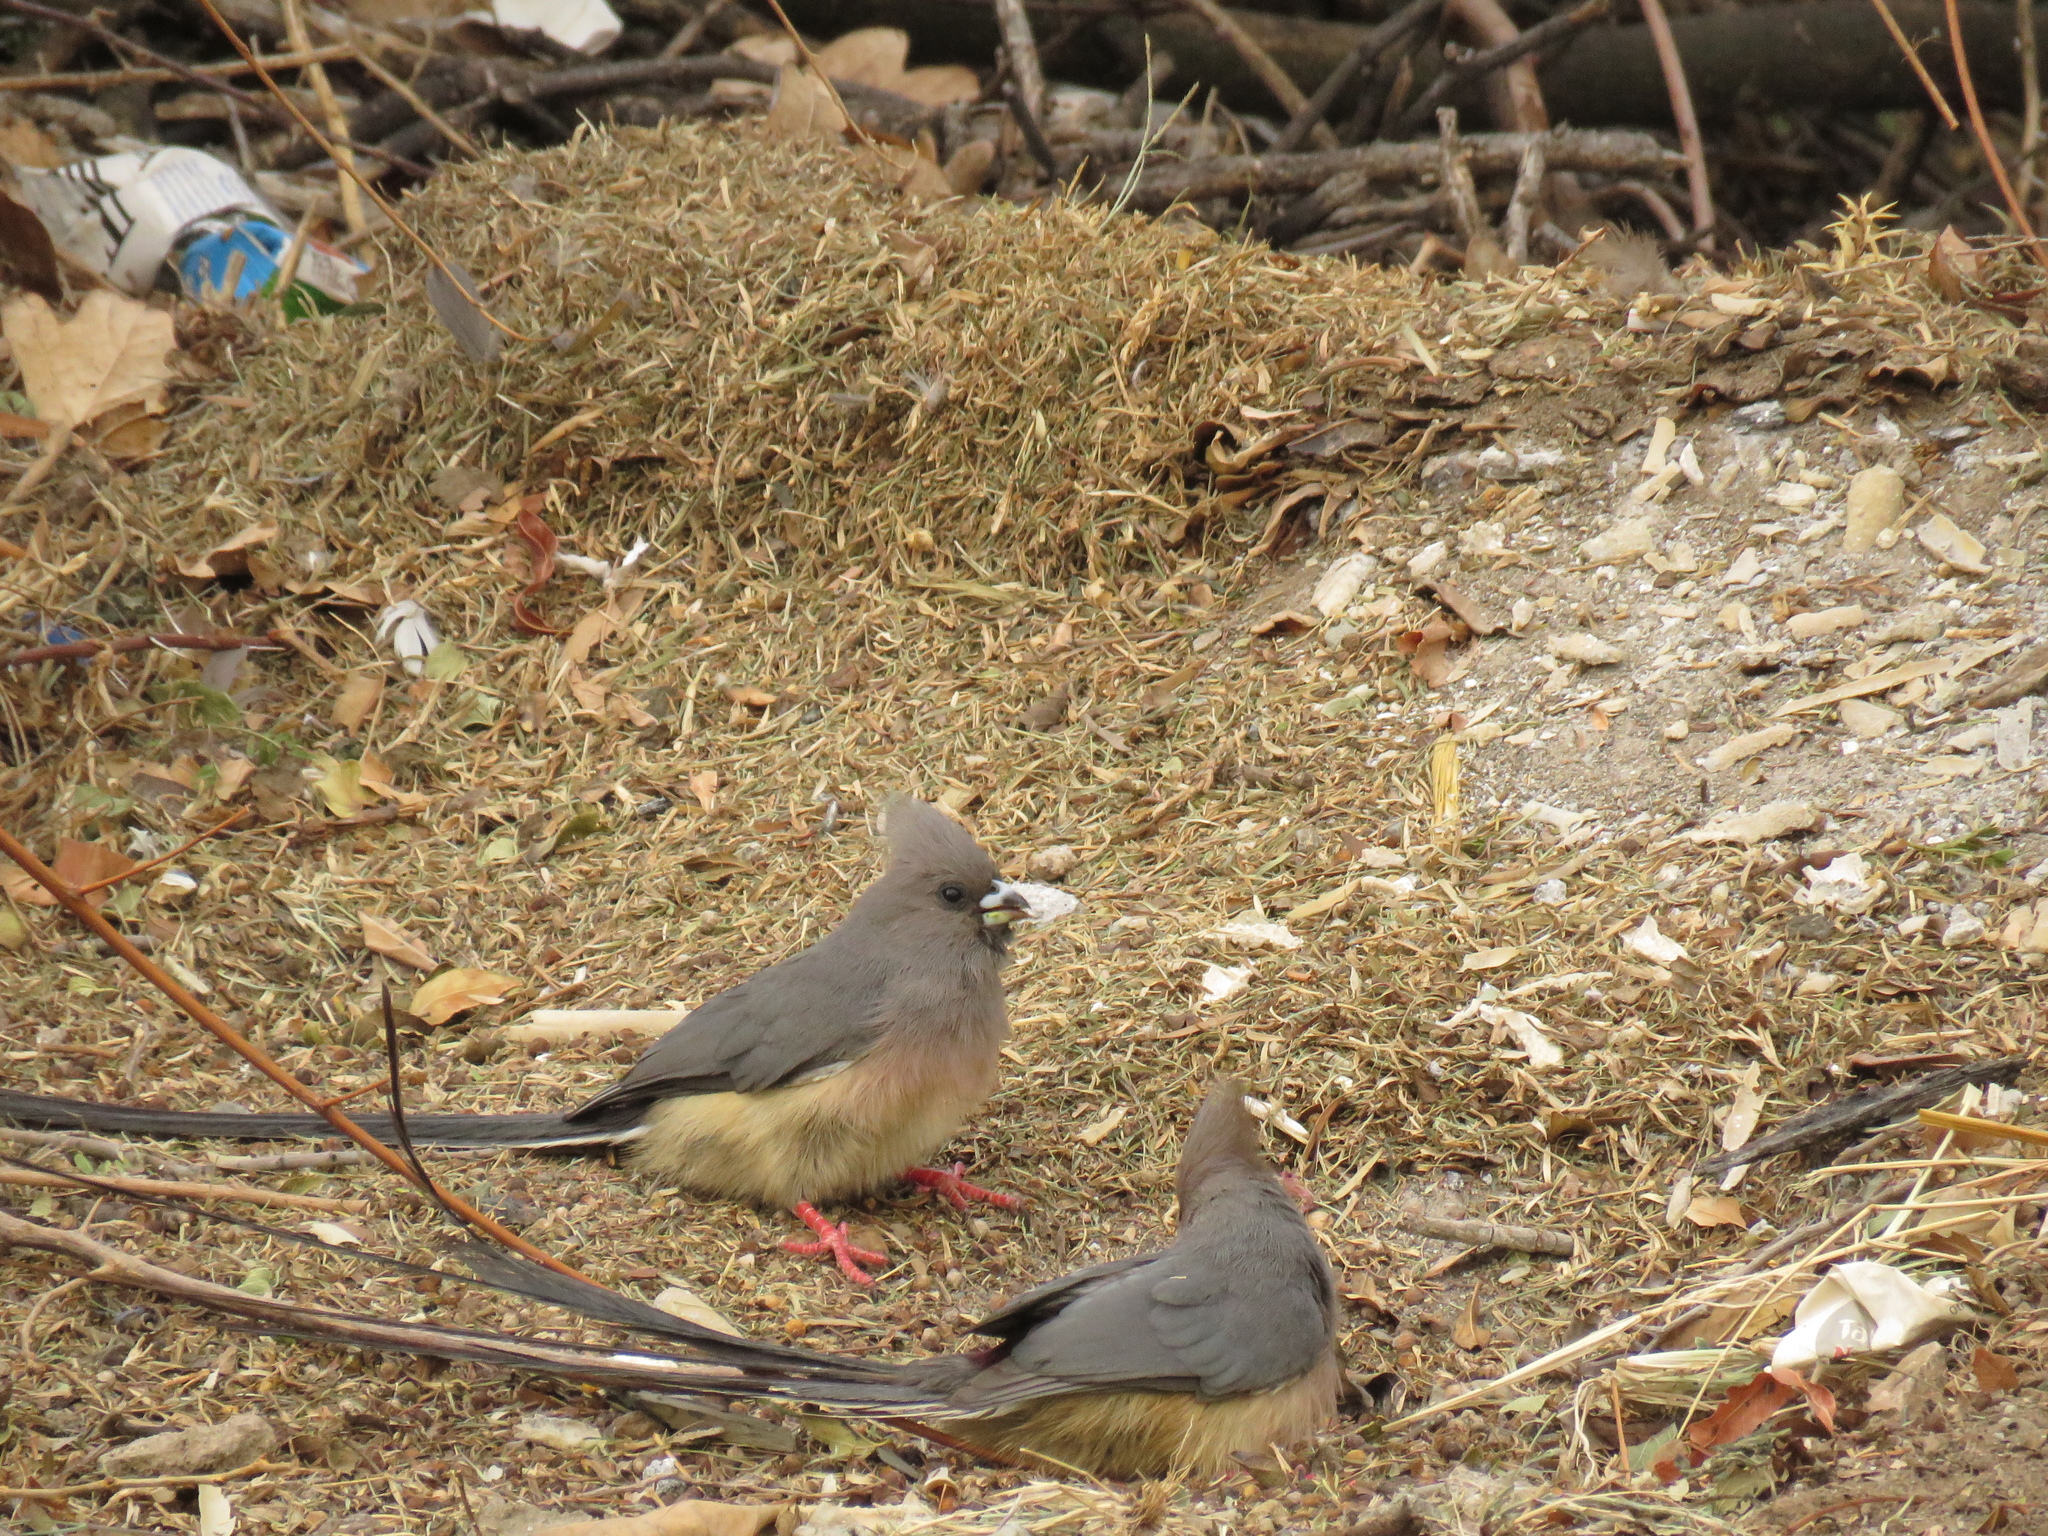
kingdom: Animalia
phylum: Chordata
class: Aves
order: Coliiformes
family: Coliidae
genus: Colius
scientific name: Colius colius
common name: White-backed mousebird
